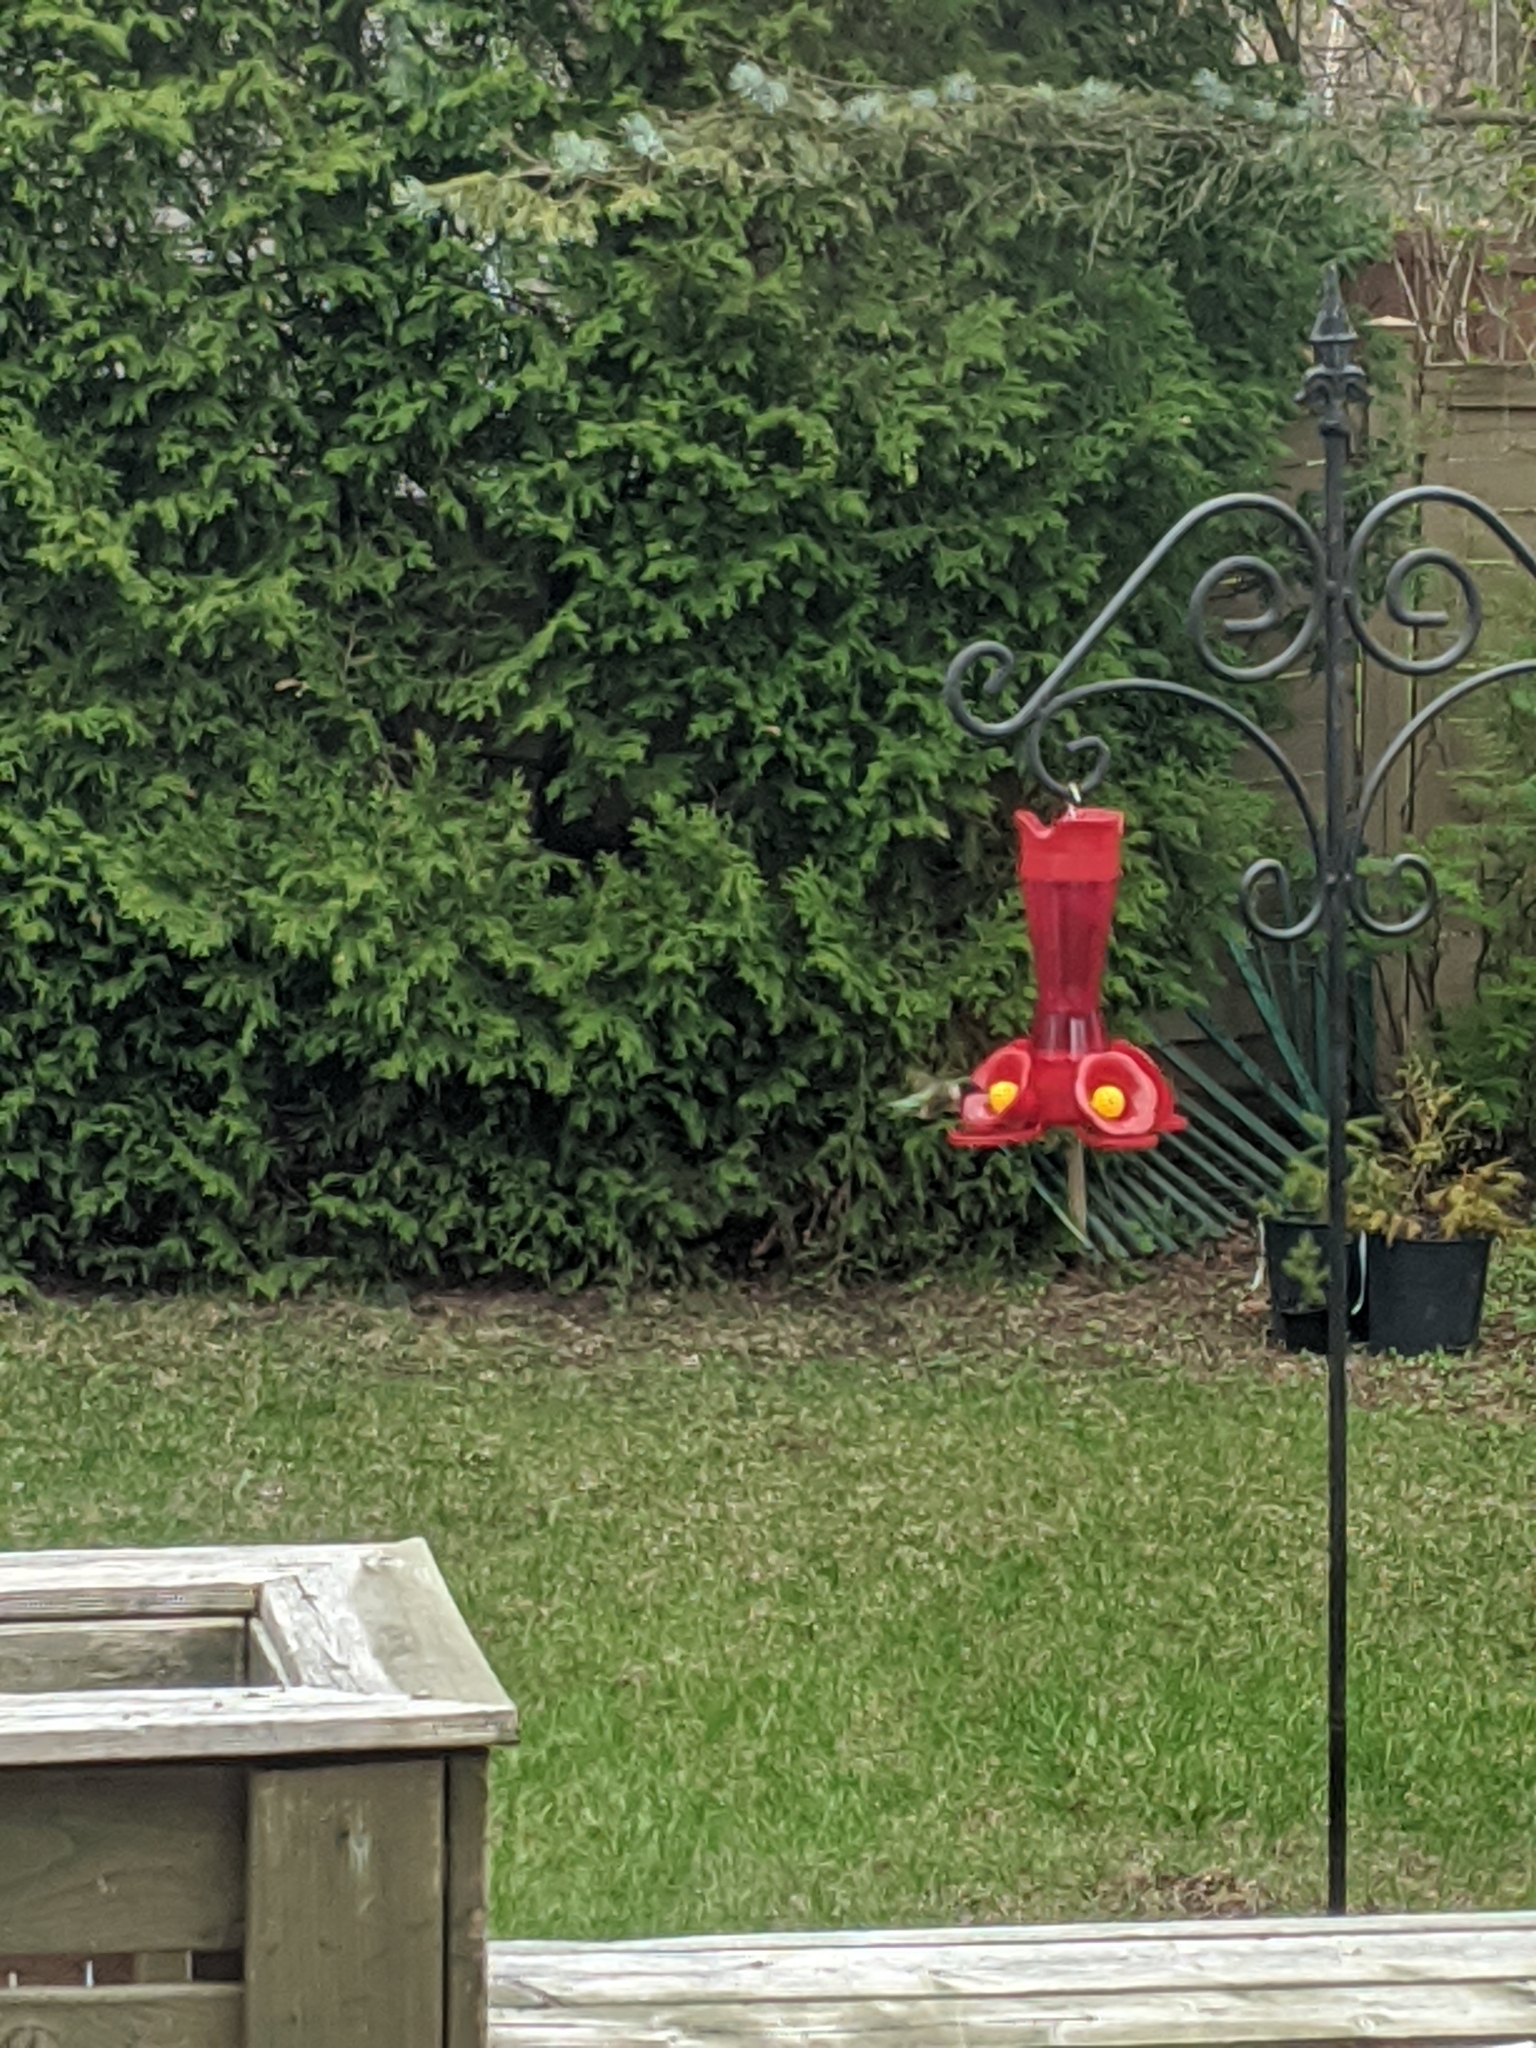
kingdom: Animalia
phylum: Chordata
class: Aves
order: Apodiformes
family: Trochilidae
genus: Archilochus
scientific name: Archilochus colubris
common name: Ruby-throated hummingbird
